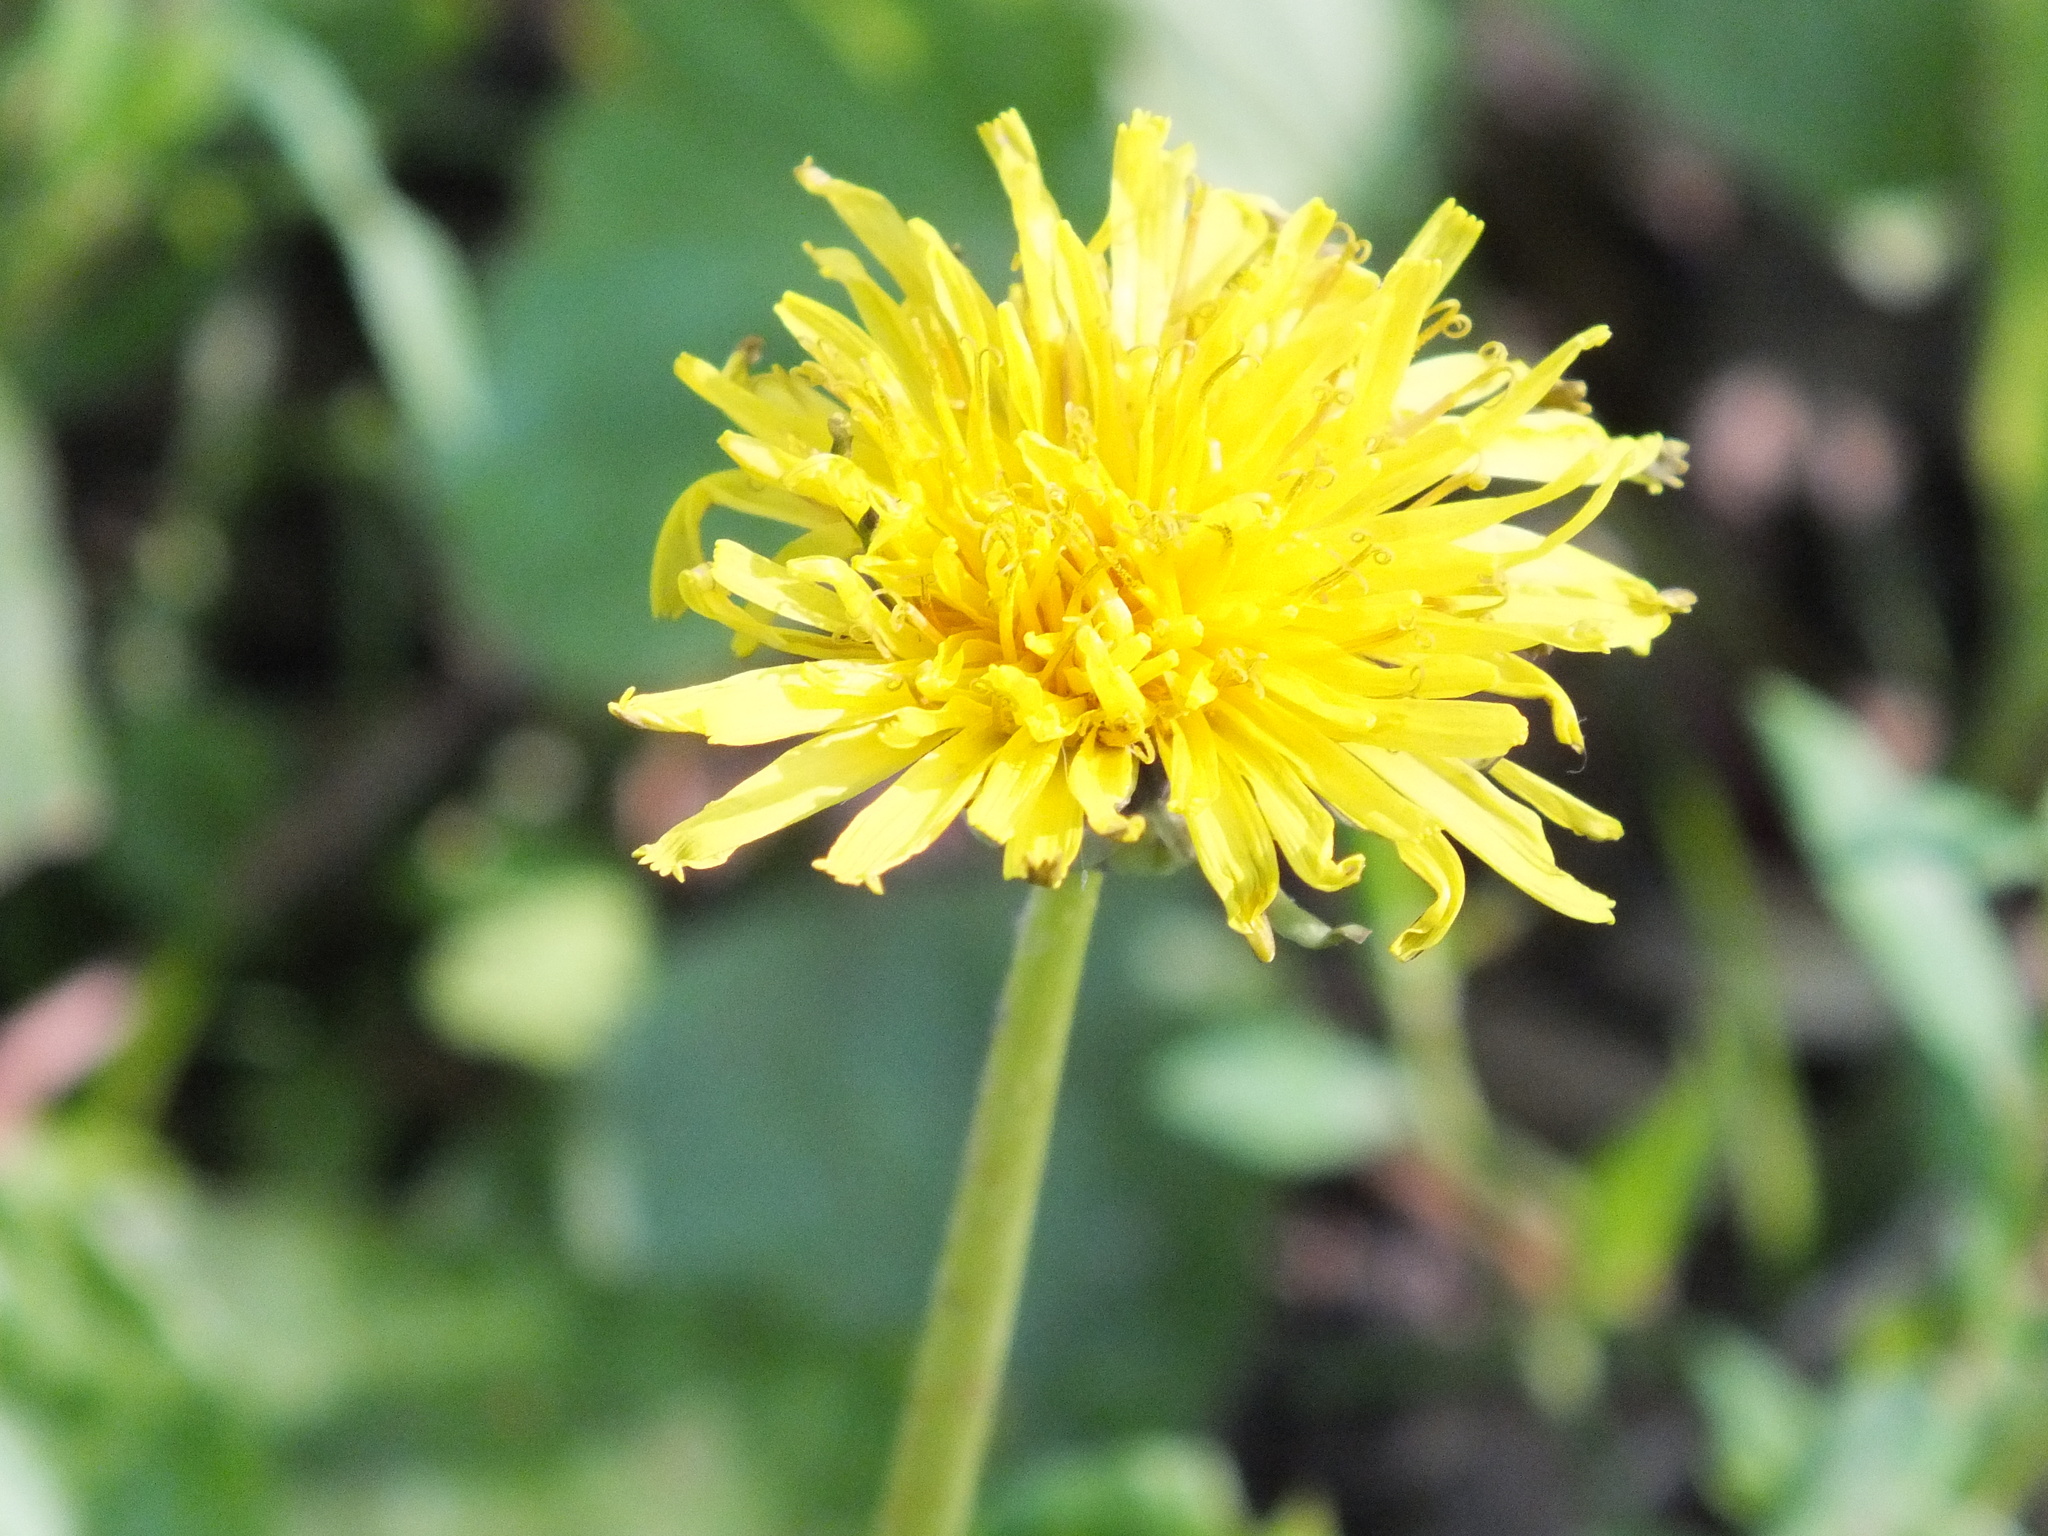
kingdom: Plantae
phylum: Tracheophyta
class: Magnoliopsida
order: Asterales
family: Asteraceae
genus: Taraxacum
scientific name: Taraxacum officinale
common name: Common dandelion
